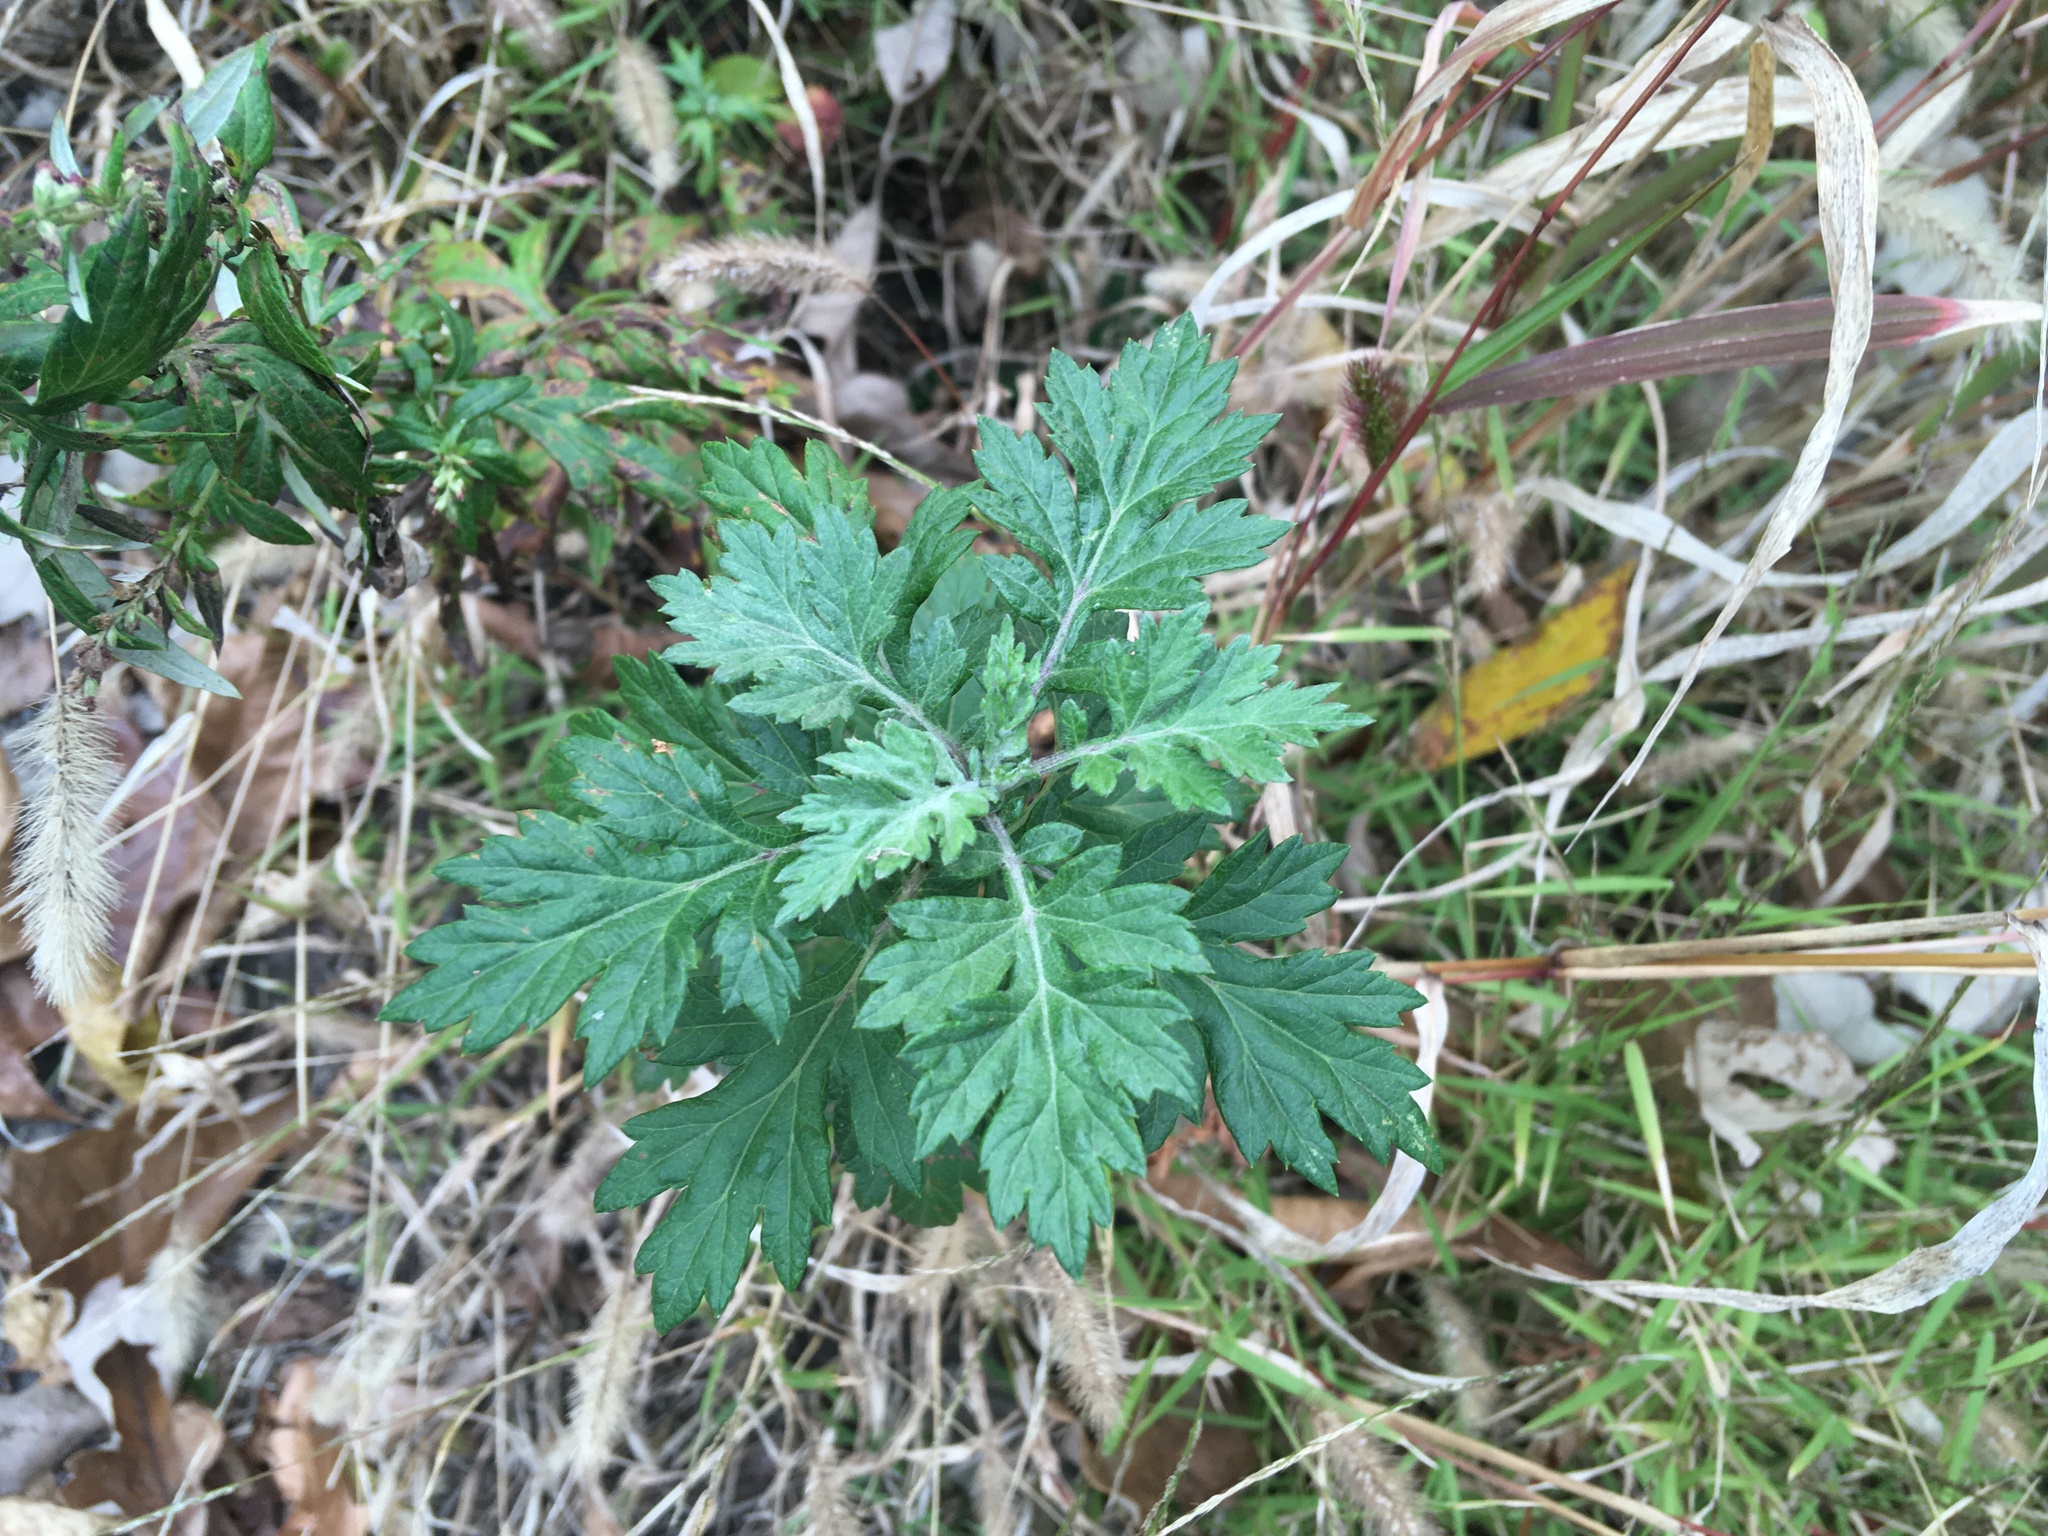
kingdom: Plantae
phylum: Tracheophyta
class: Magnoliopsida
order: Asterales
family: Asteraceae
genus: Artemisia
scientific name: Artemisia vulgaris
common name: Mugwort
